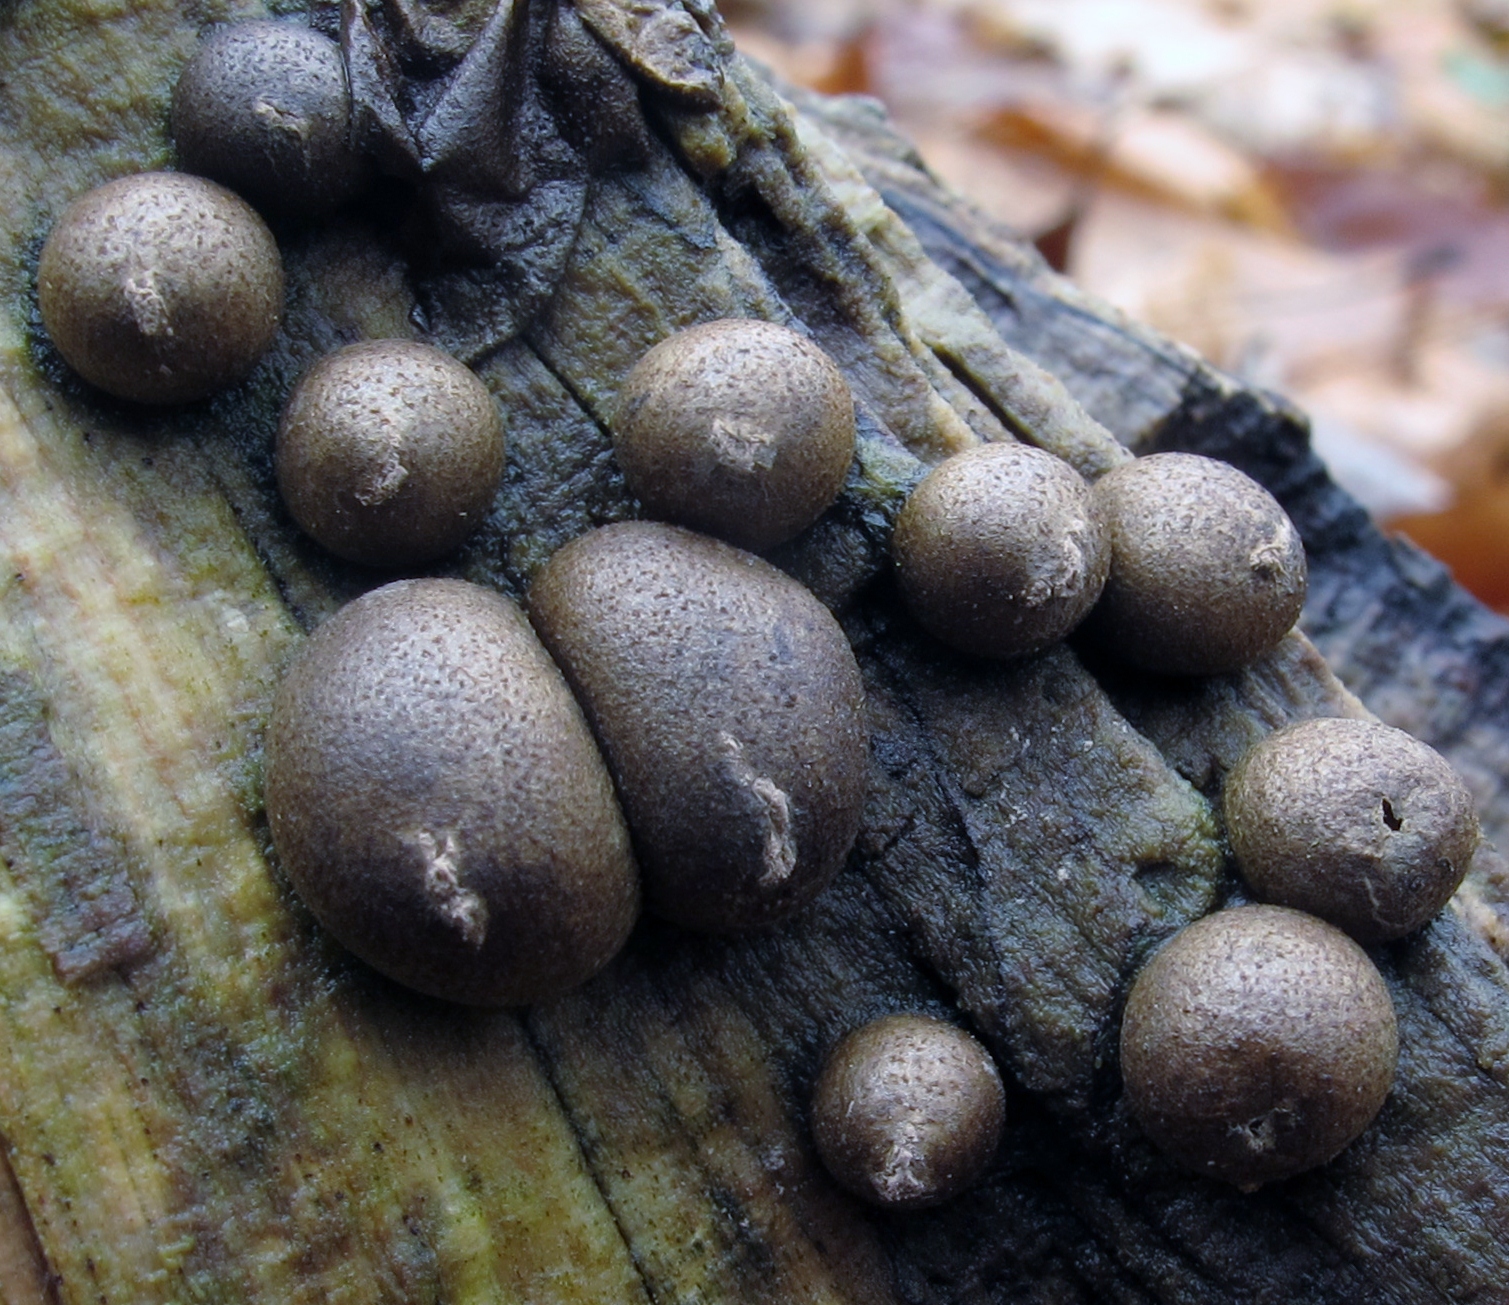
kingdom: Protozoa
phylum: Mycetozoa
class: Myxomycetes
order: Cribrariales
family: Tubiferaceae
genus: Lycogala
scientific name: Lycogala epidendrum
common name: Wolf's milk
